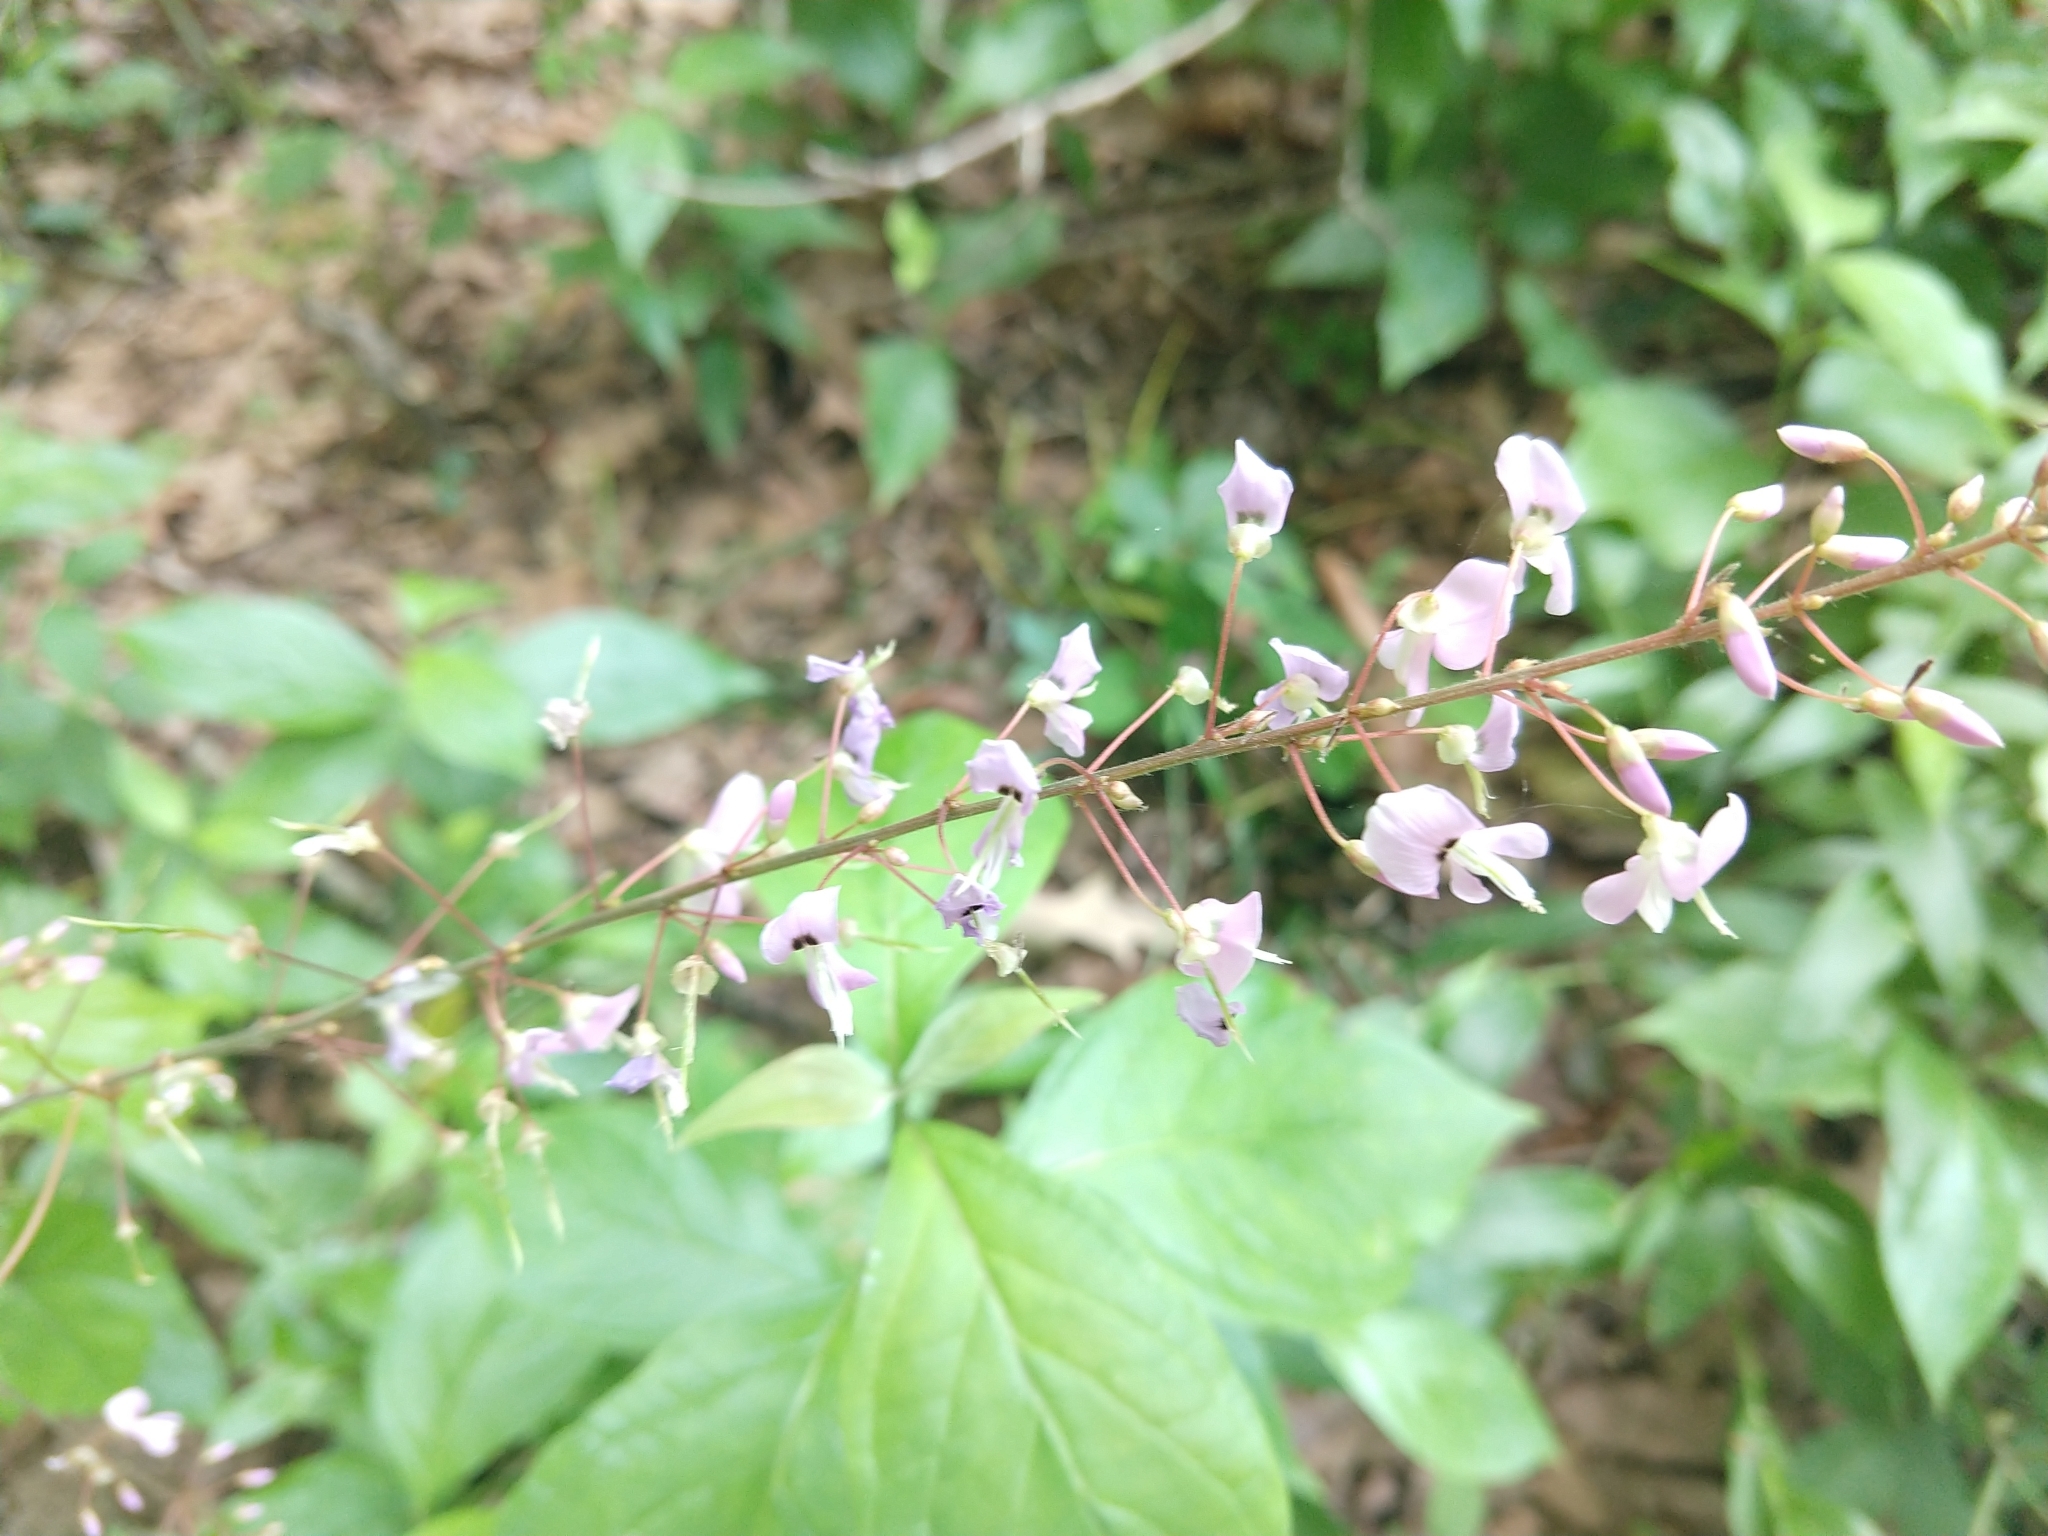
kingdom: Plantae
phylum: Tracheophyta
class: Magnoliopsida
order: Fabales
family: Fabaceae
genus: Hylodesmum
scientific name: Hylodesmum nudiflorum
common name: Bare-stemmed tick-trefoil
